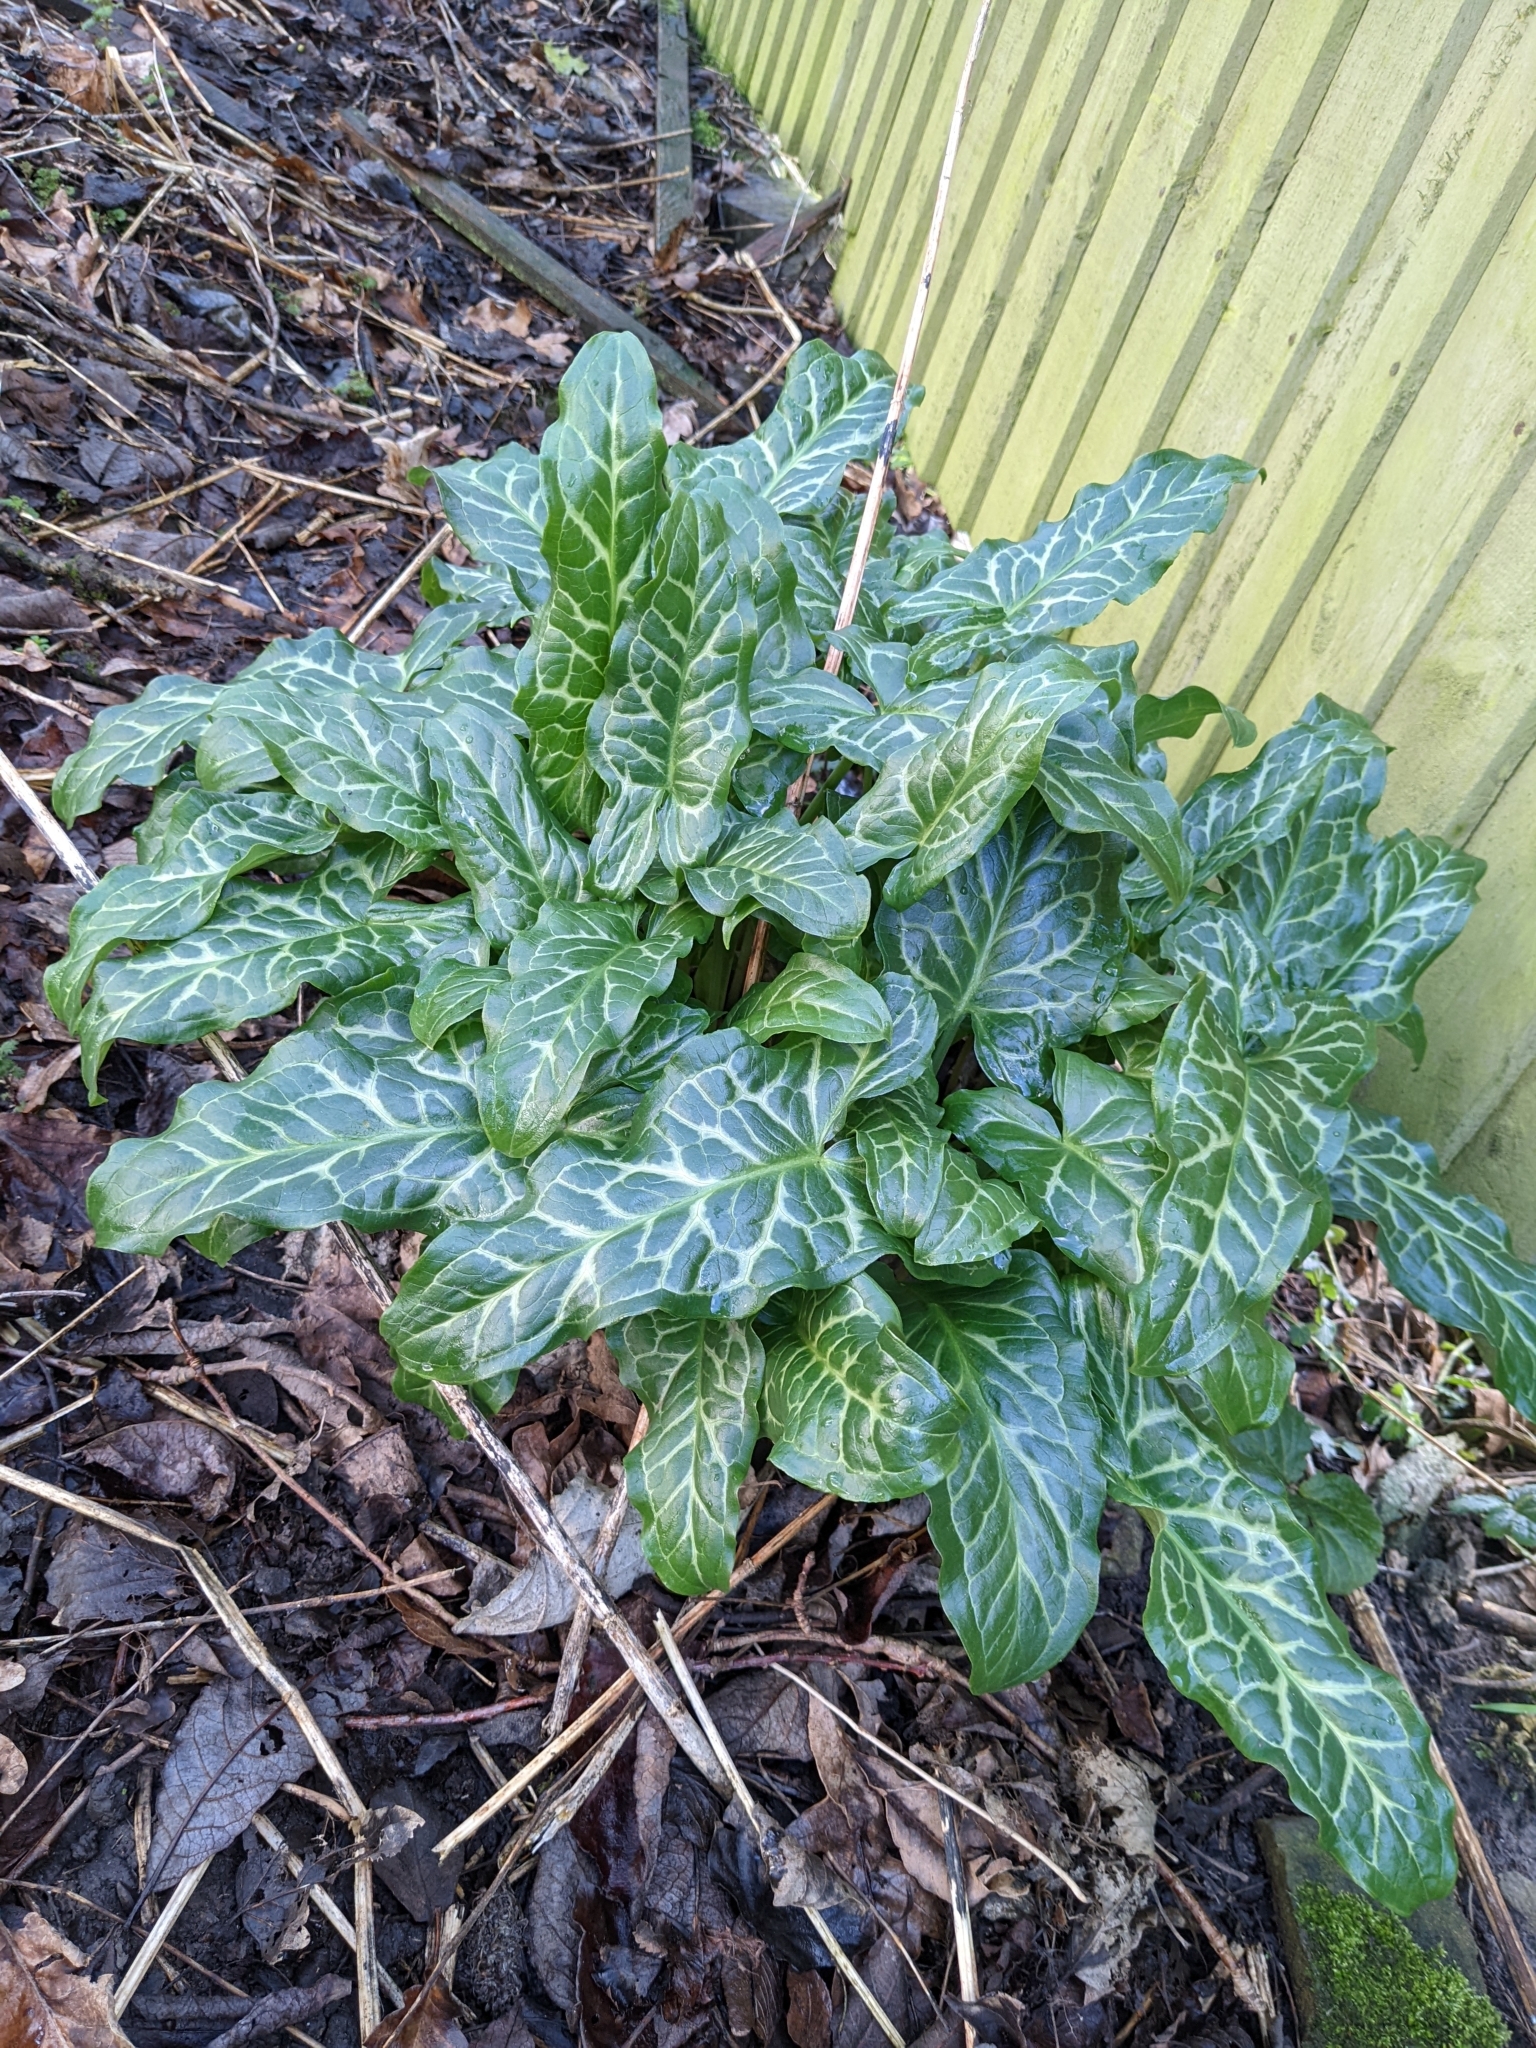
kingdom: Plantae
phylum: Tracheophyta
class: Liliopsida
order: Alismatales
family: Araceae
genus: Arum
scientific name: Arum italicum
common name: Italian lords-and-ladies
